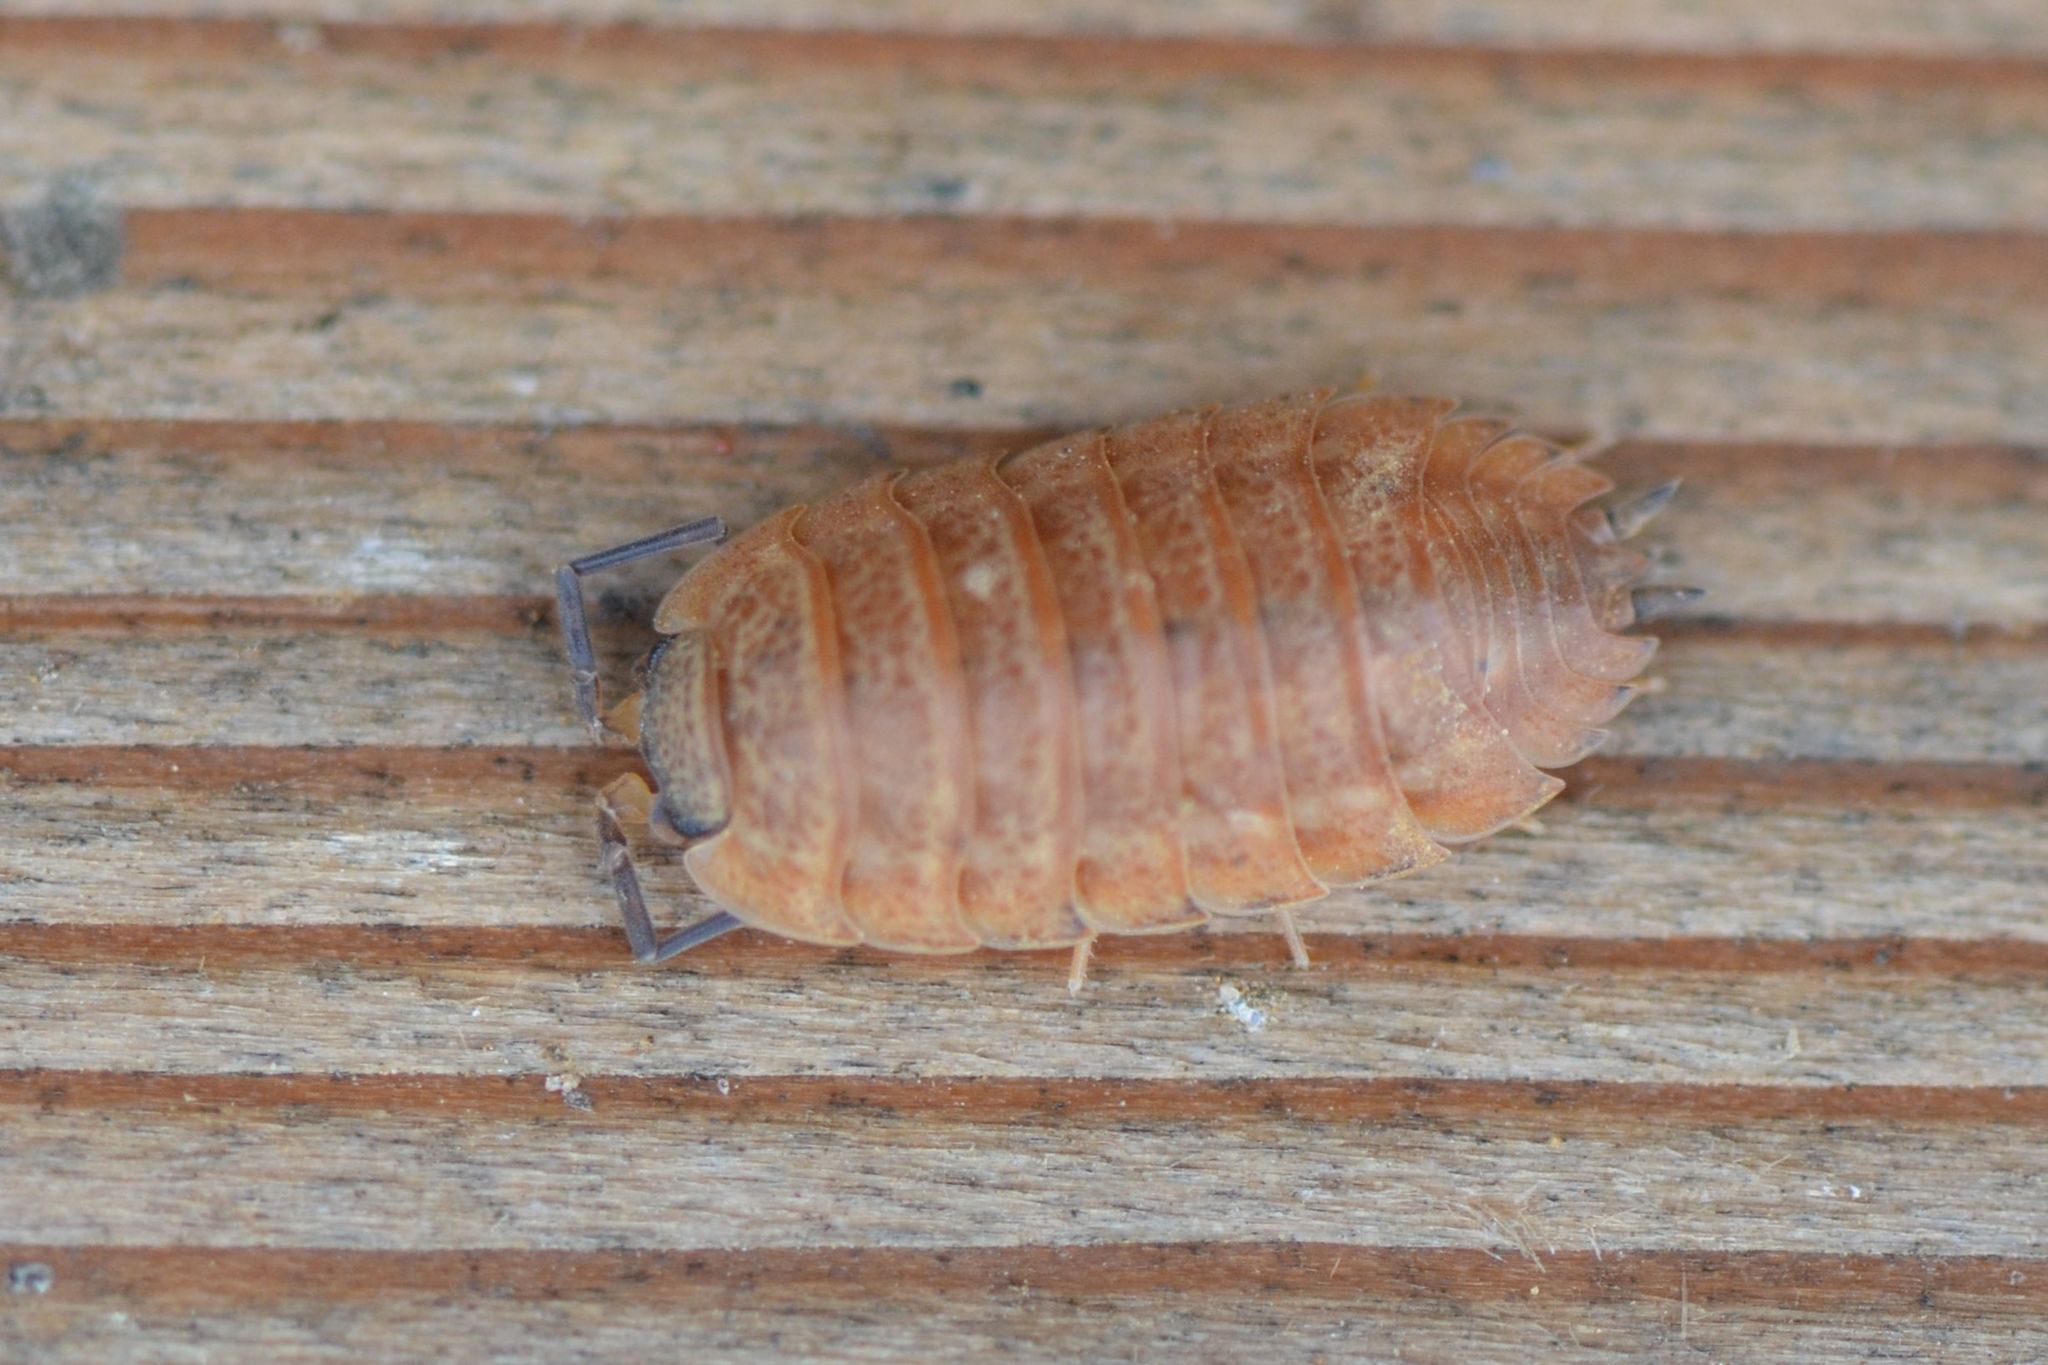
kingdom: Animalia
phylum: Arthropoda
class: Malacostraca
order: Isopoda
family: Trachelipodidae
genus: Trachelipus
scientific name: Trachelipus rathkii
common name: Isopod
